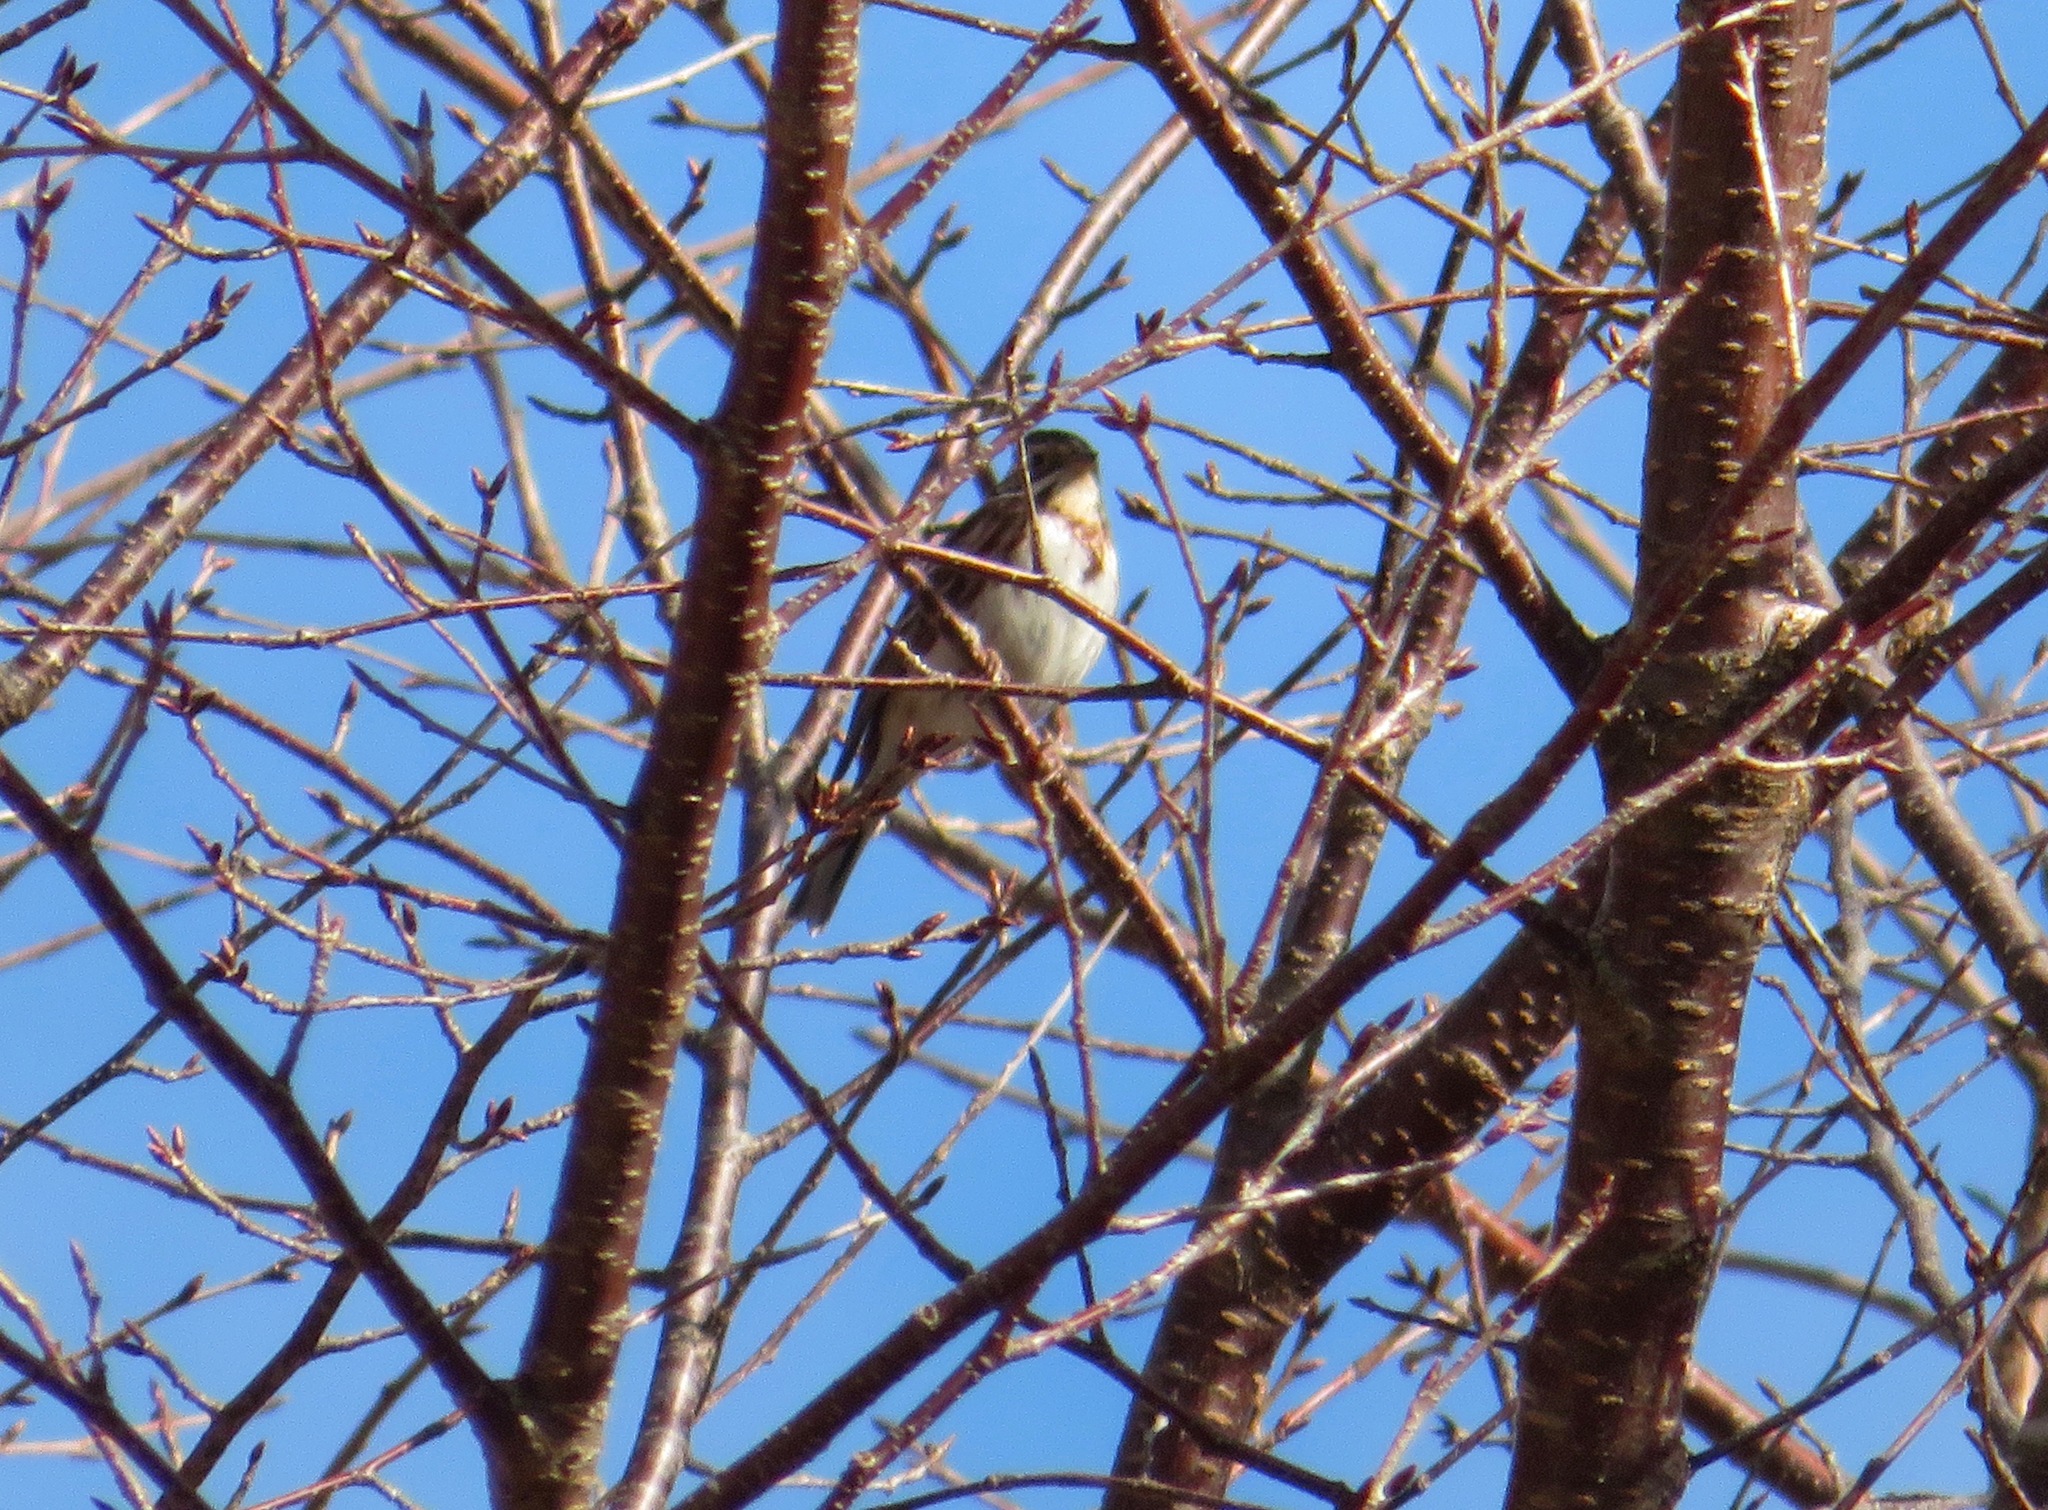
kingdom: Animalia
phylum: Chordata
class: Aves
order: Passeriformes
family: Emberizidae
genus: Emberiza
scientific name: Emberiza rustica
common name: Rustic bunting
